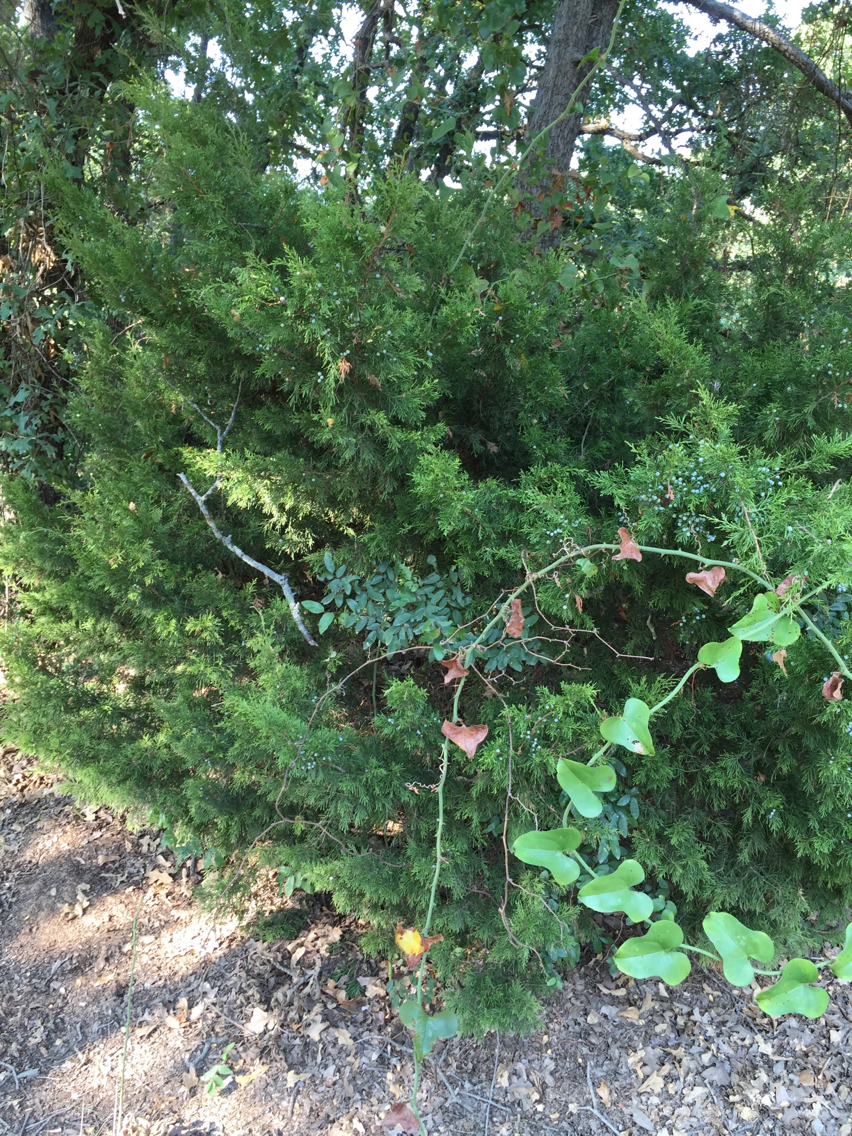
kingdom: Plantae
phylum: Tracheophyta
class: Pinopsida
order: Pinales
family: Cupressaceae
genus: Juniperus
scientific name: Juniperus virginiana
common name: Red juniper
